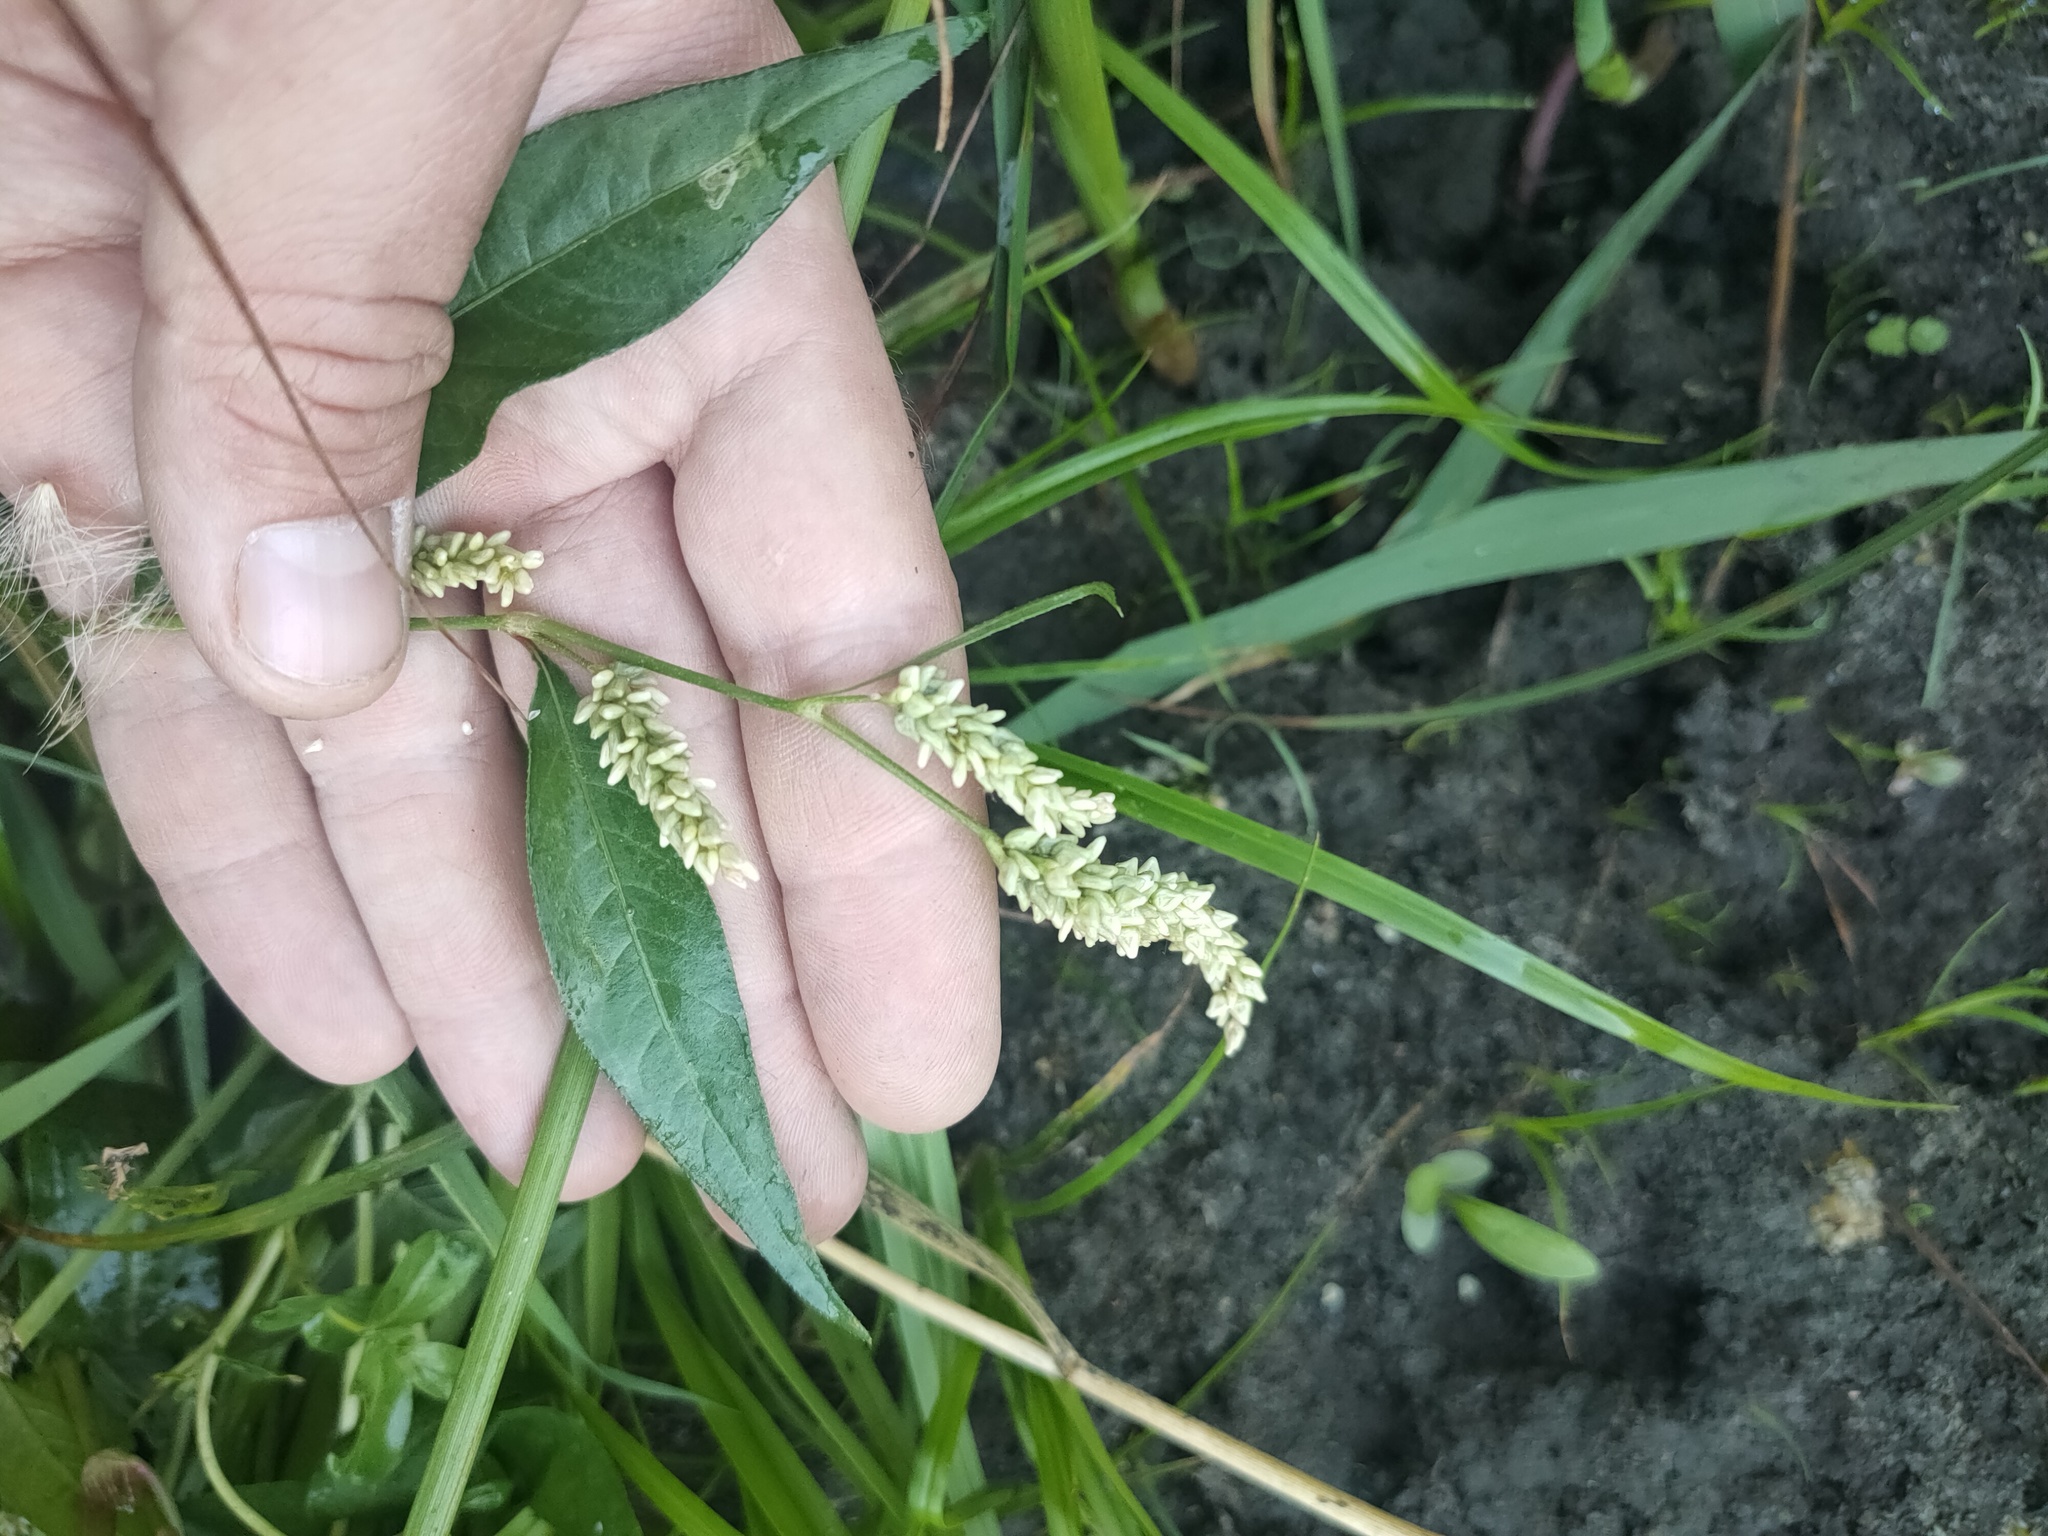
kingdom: Plantae
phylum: Tracheophyta
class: Magnoliopsida
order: Caryophyllales
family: Polygonaceae
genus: Persicaria
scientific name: Persicaria lapathifolia
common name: Curlytop knotweed
